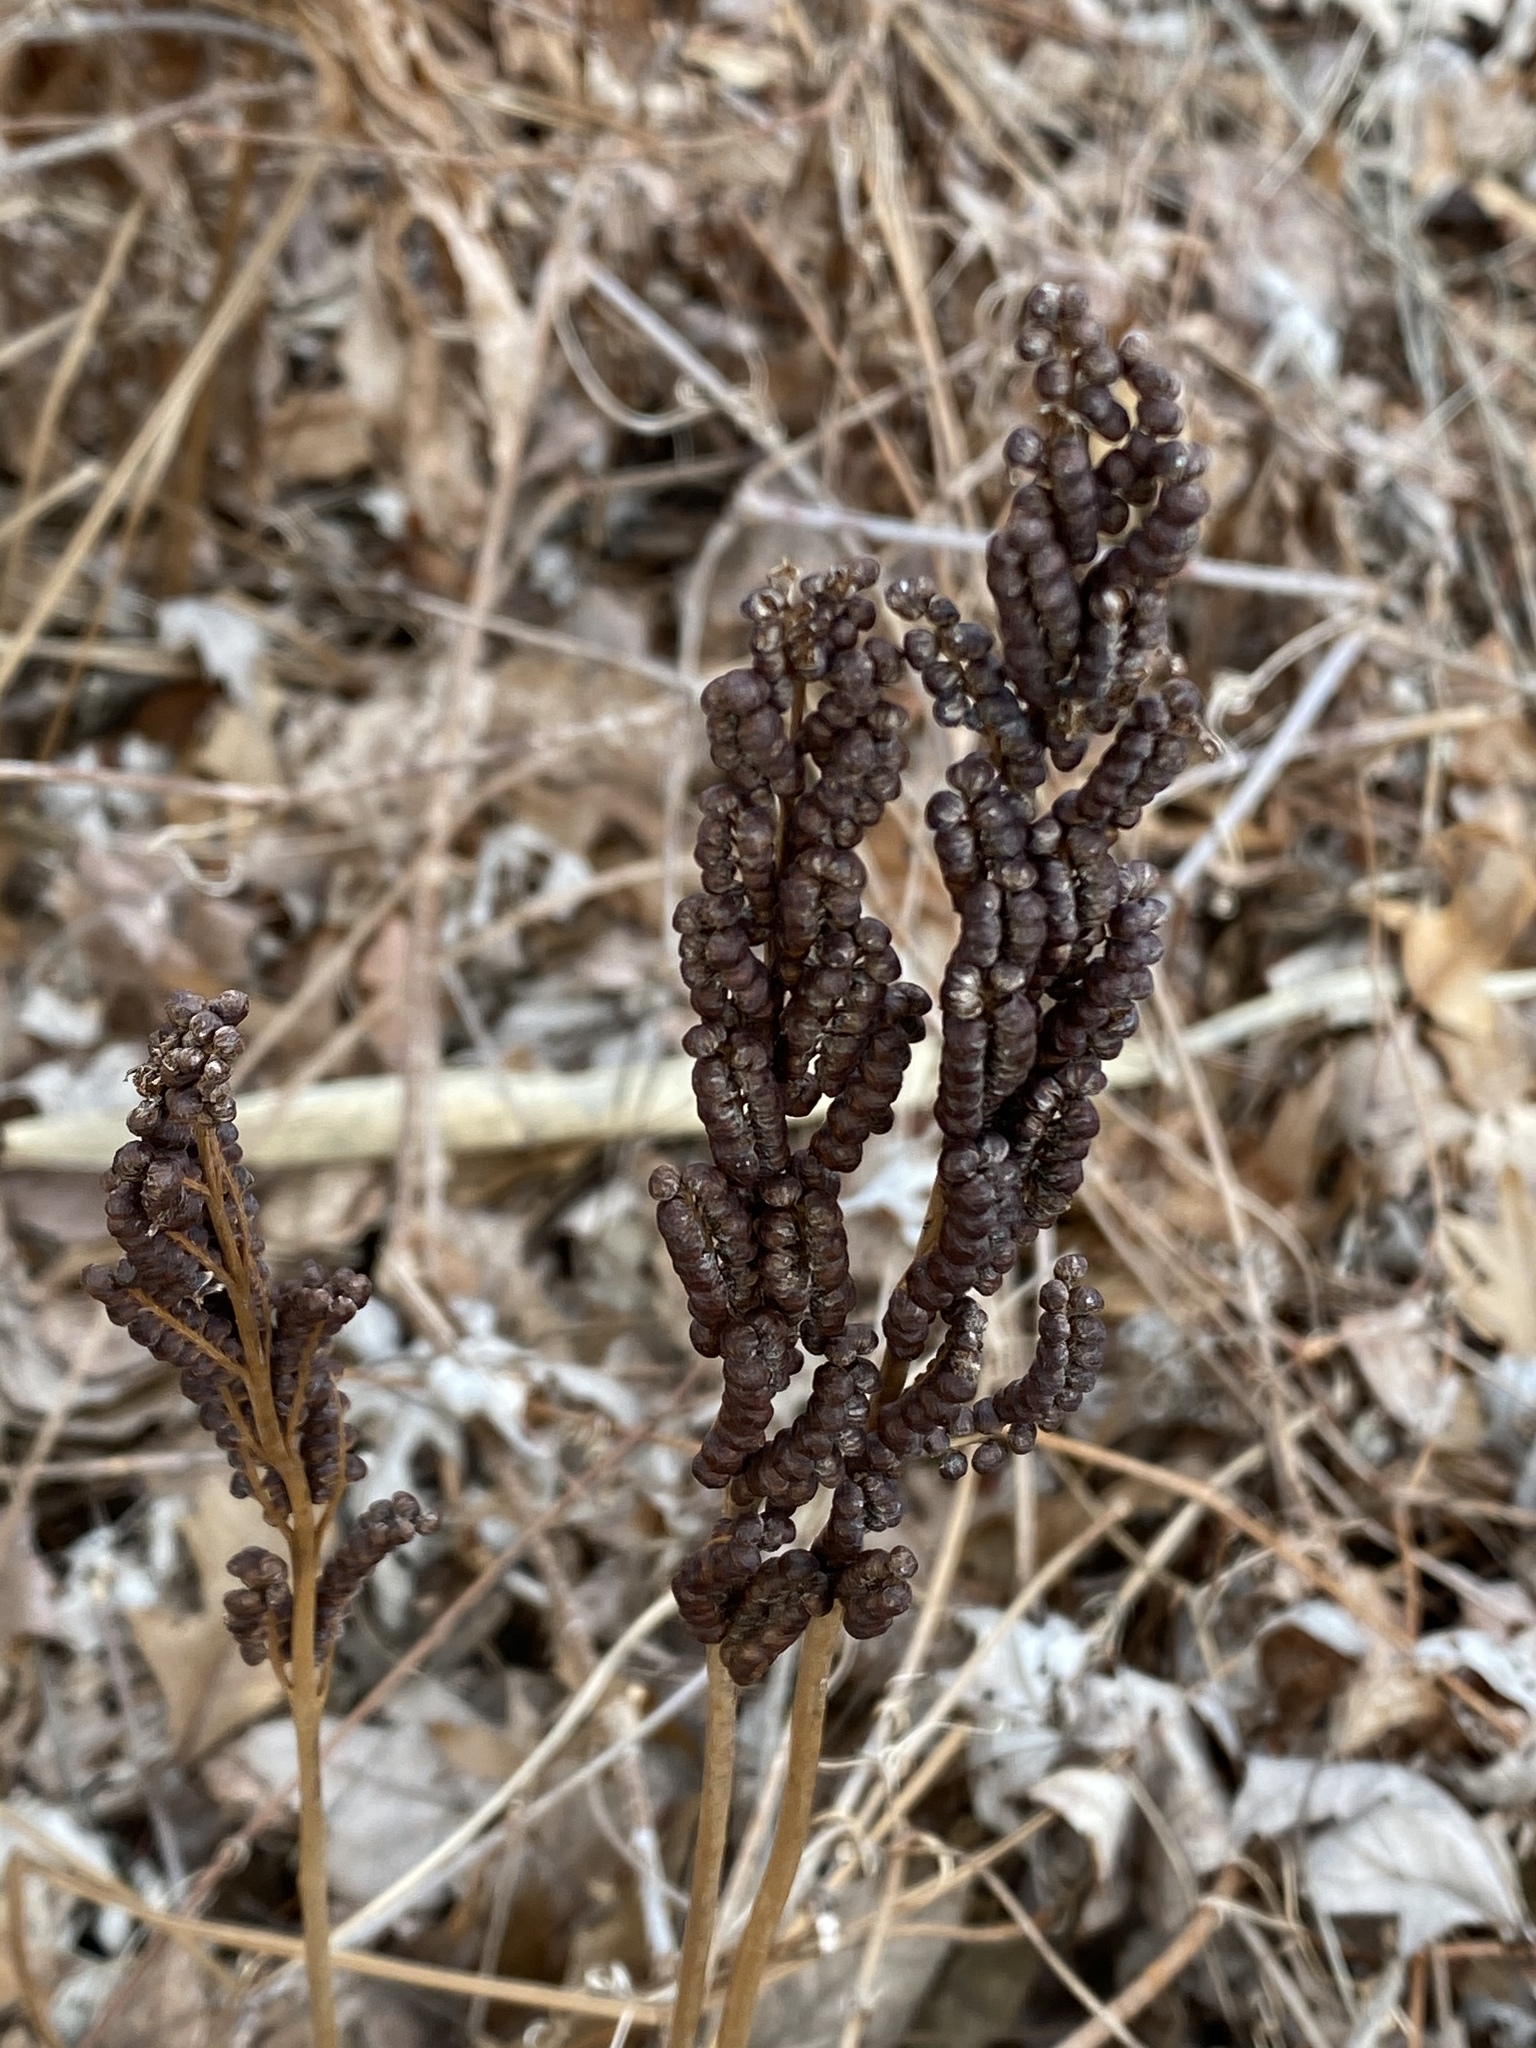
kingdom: Plantae
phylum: Tracheophyta
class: Polypodiopsida
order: Polypodiales
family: Onocleaceae
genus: Onoclea
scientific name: Onoclea sensibilis
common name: Sensitive fern
